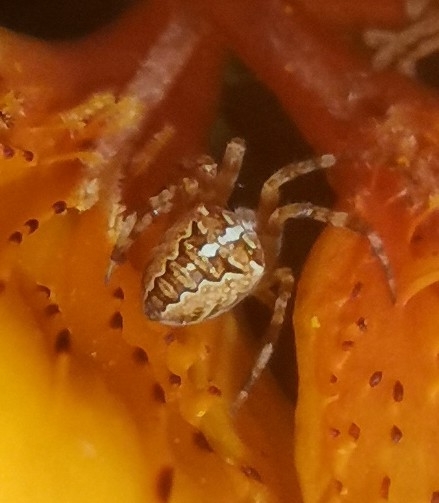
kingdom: Animalia
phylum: Arthropoda
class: Arachnida
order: Araneae
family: Araneidae
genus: Araneus
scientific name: Araneus diadematus
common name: Cross orbweaver
